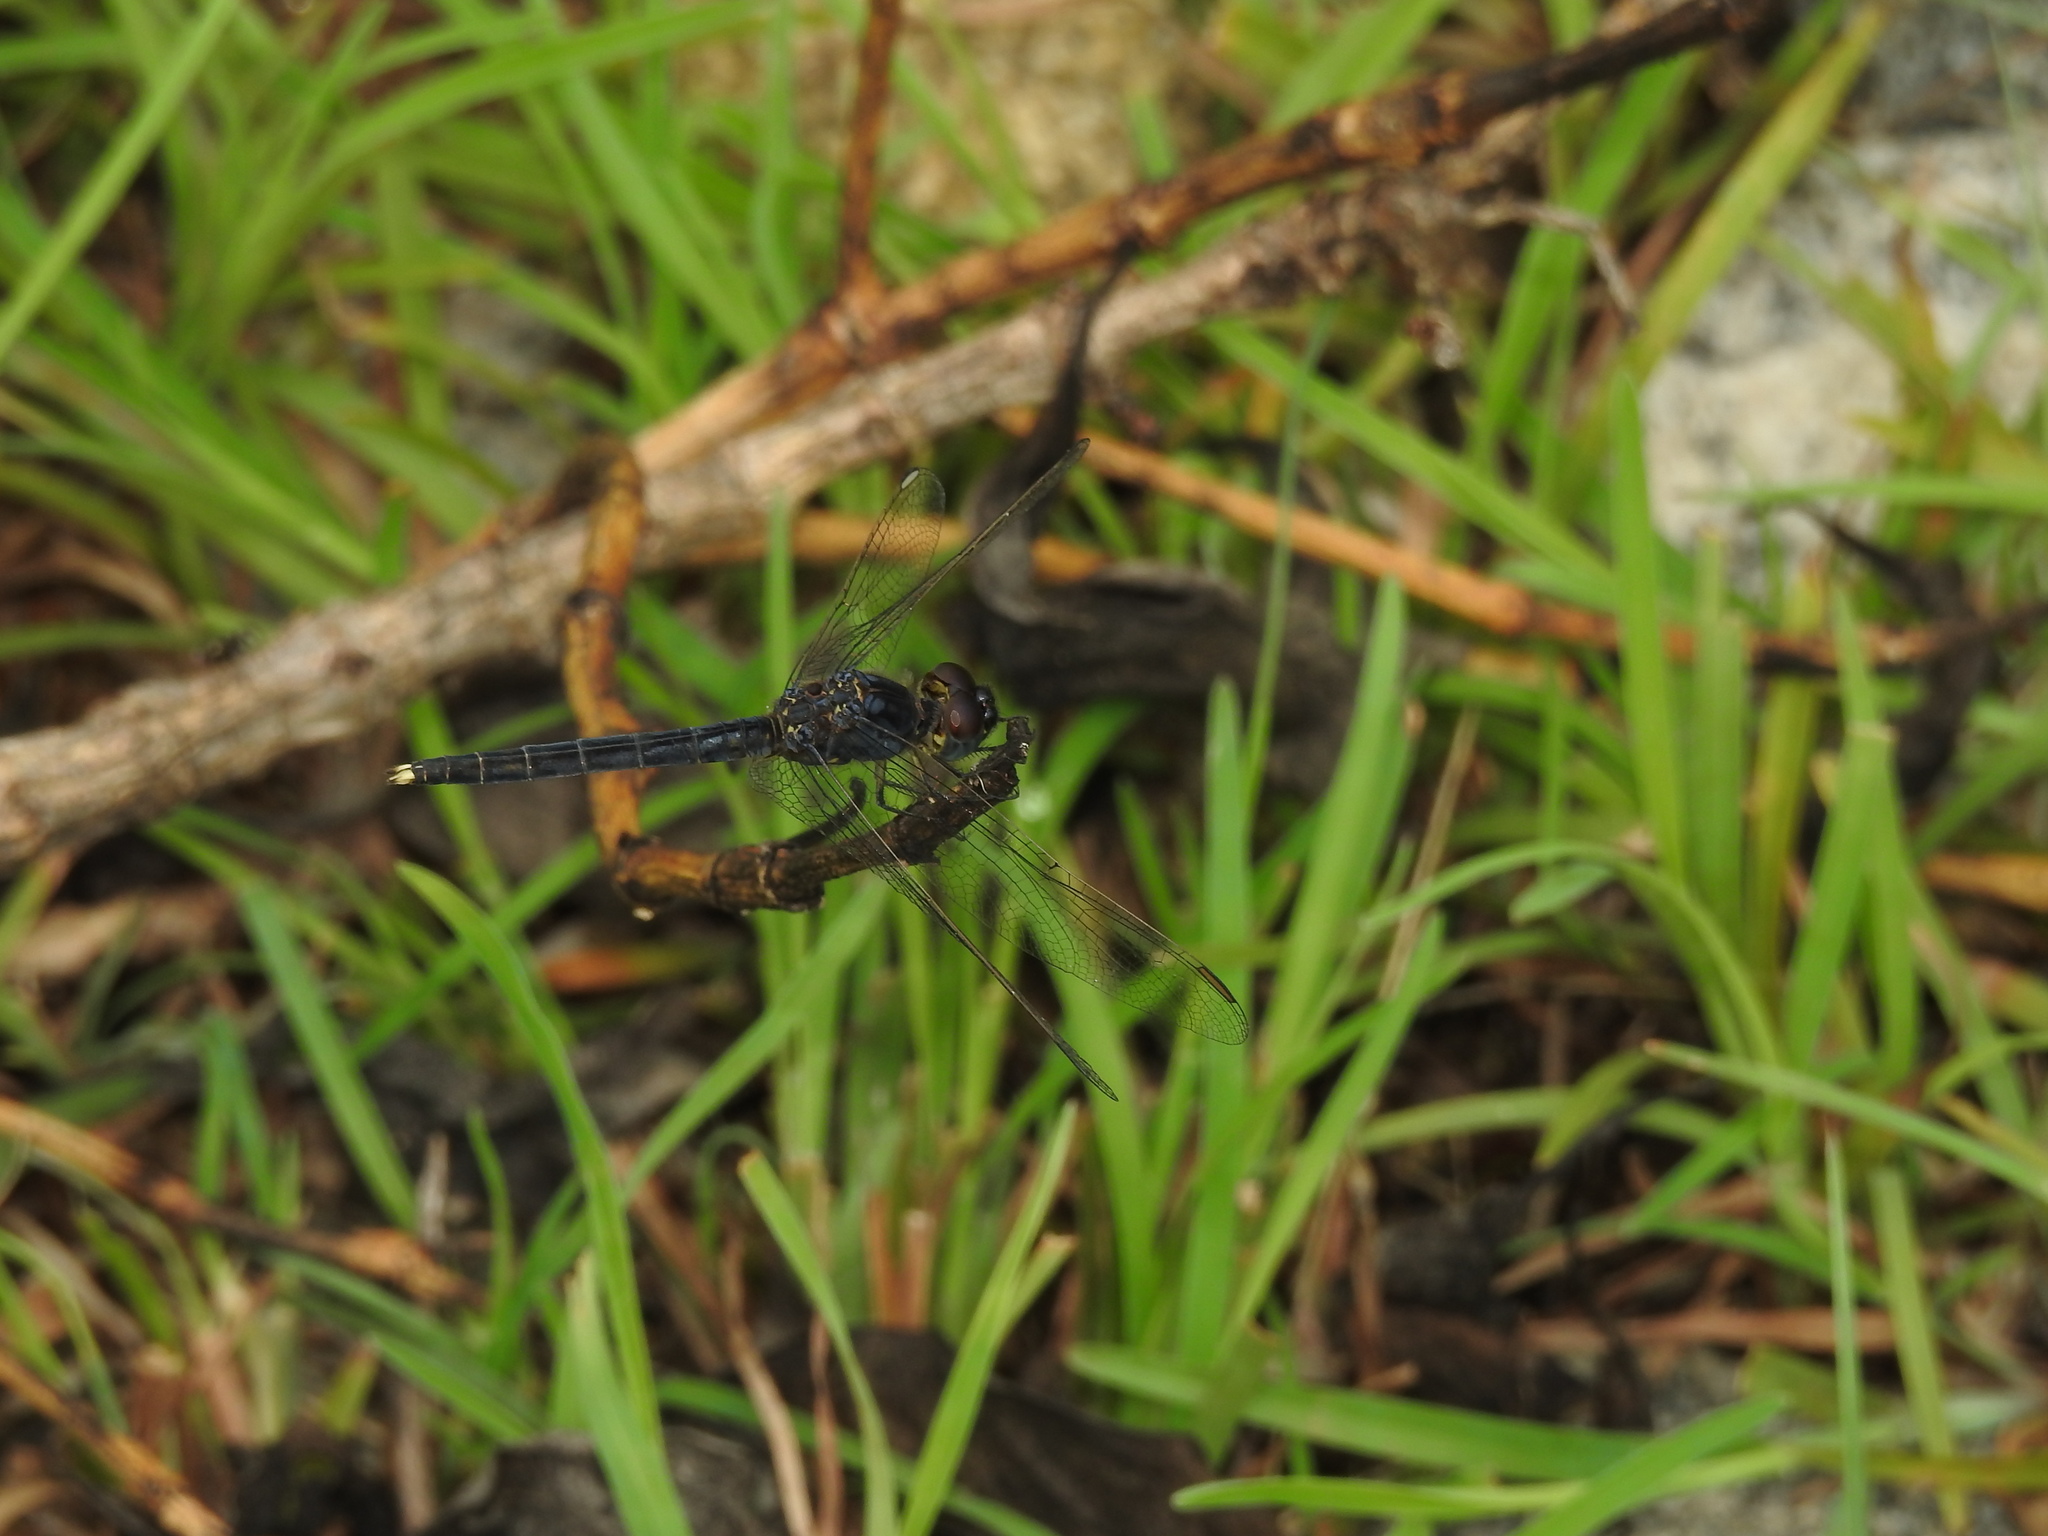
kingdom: Animalia
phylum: Arthropoda
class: Insecta
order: Odonata
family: Libellulidae
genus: Indothemis
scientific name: Indothemis carnatica
